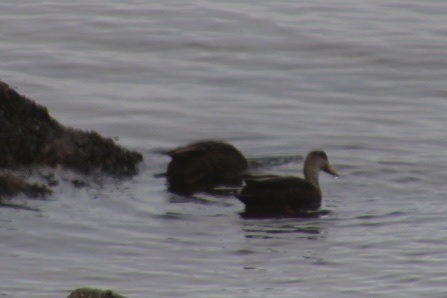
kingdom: Animalia
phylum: Chordata
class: Aves
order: Anseriformes
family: Anatidae
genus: Anas
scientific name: Anas rubripes
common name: American black duck
